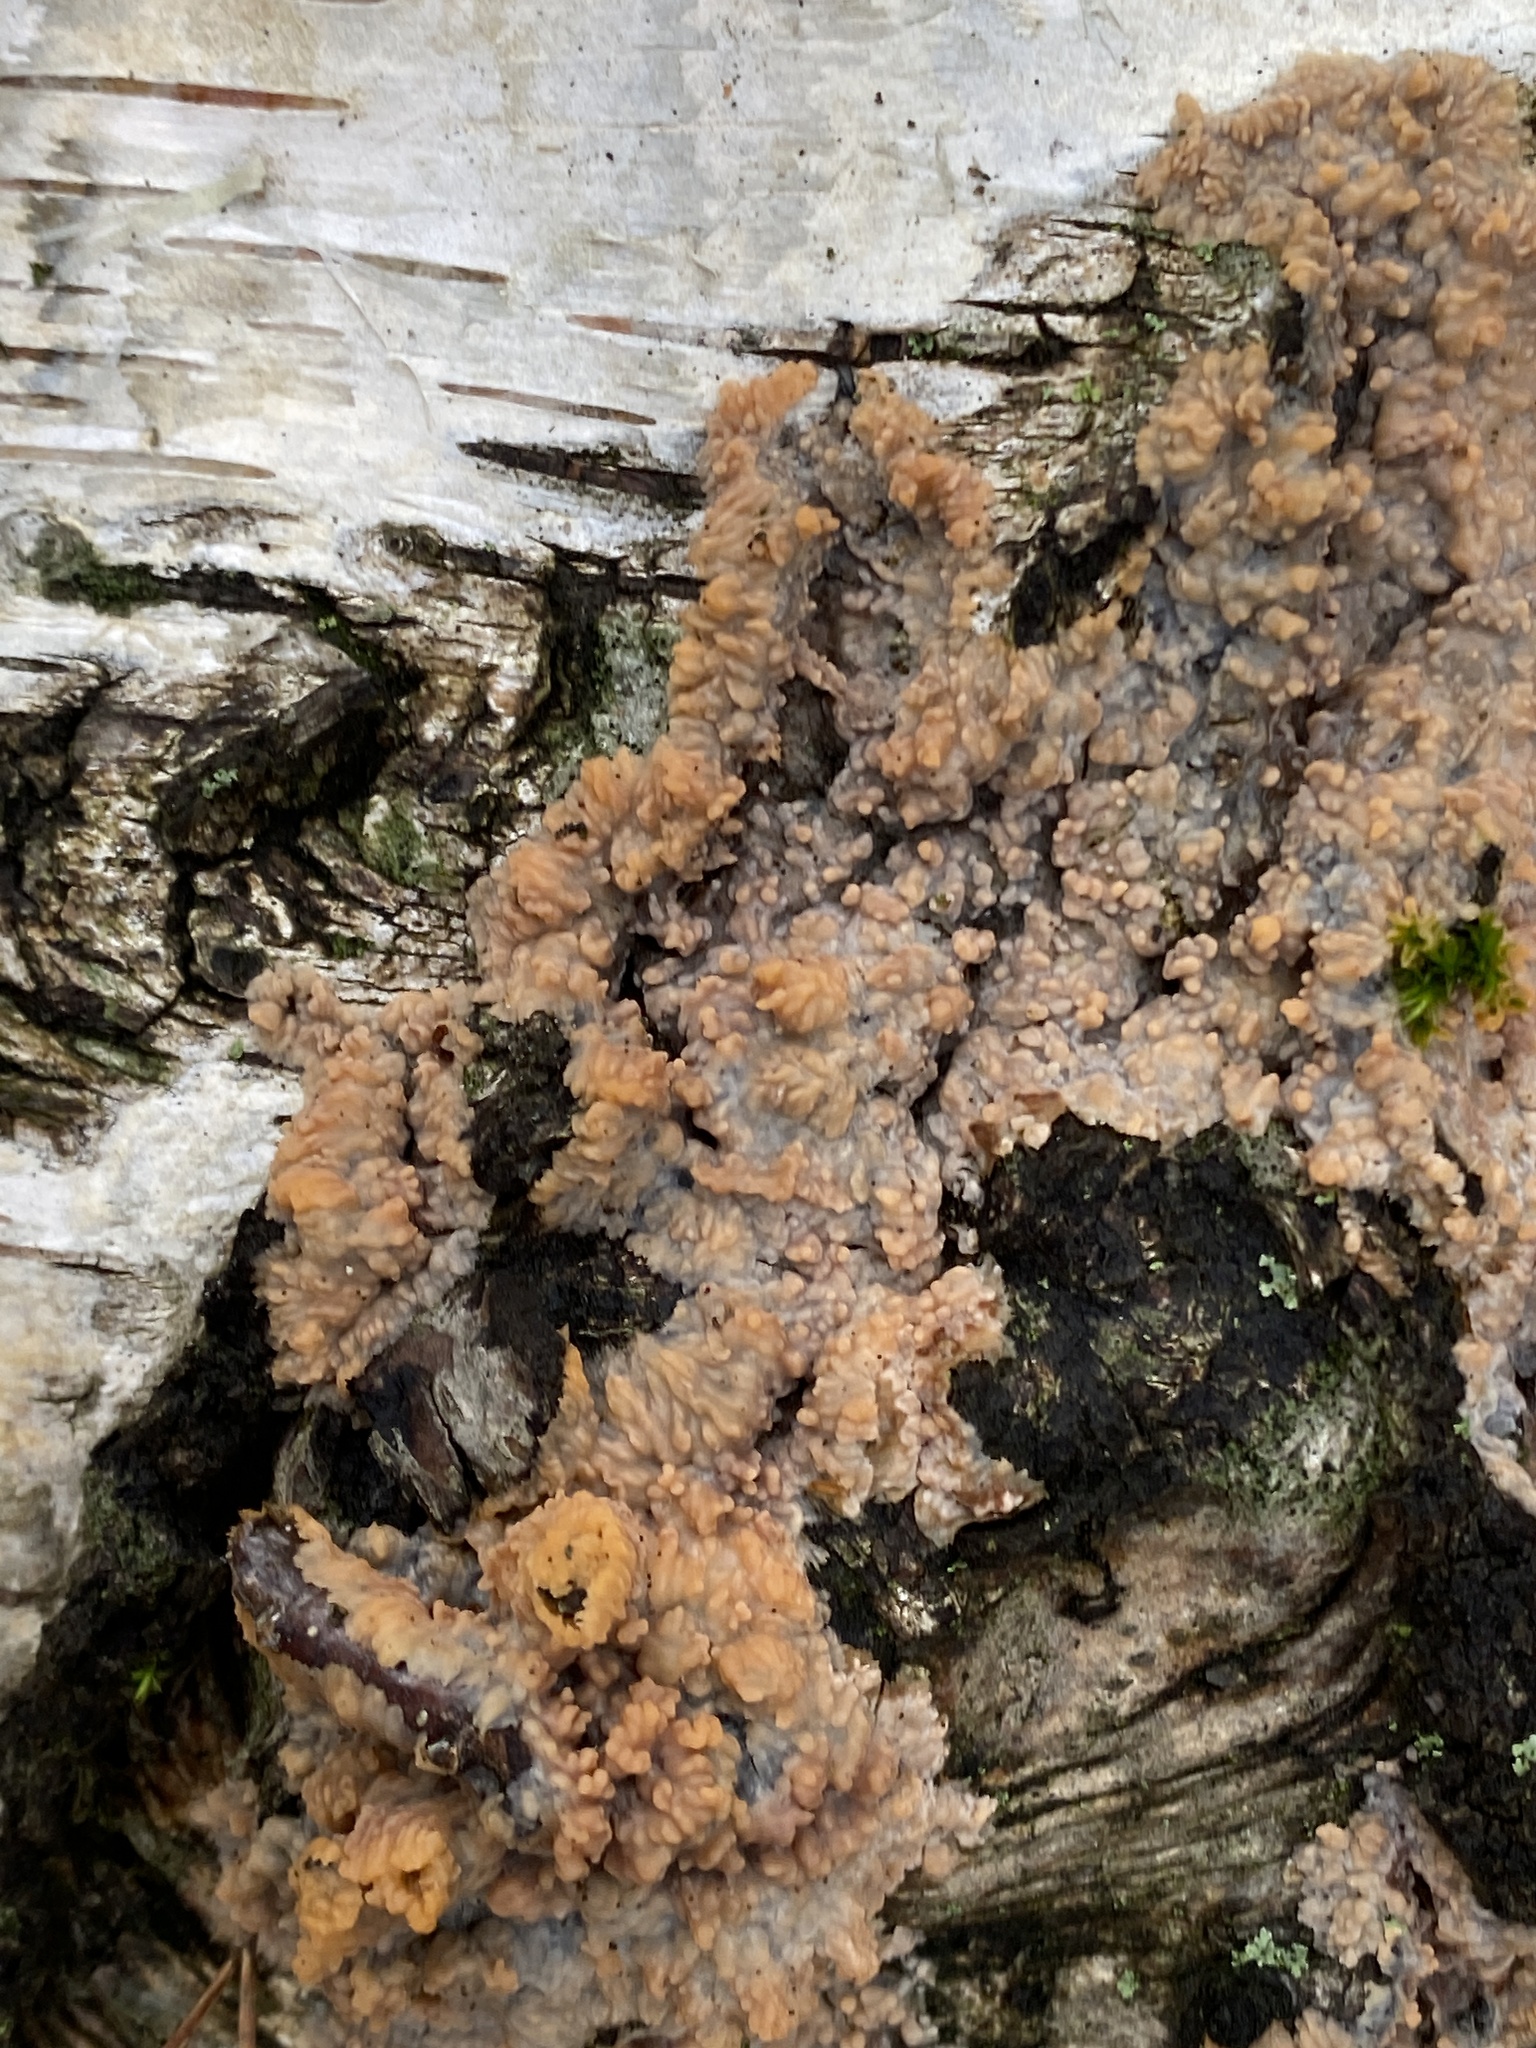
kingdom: Fungi
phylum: Basidiomycota
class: Agaricomycetes
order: Polyporales
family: Meruliaceae
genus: Phlebia
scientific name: Phlebia radiata
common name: Wrinkled crust
